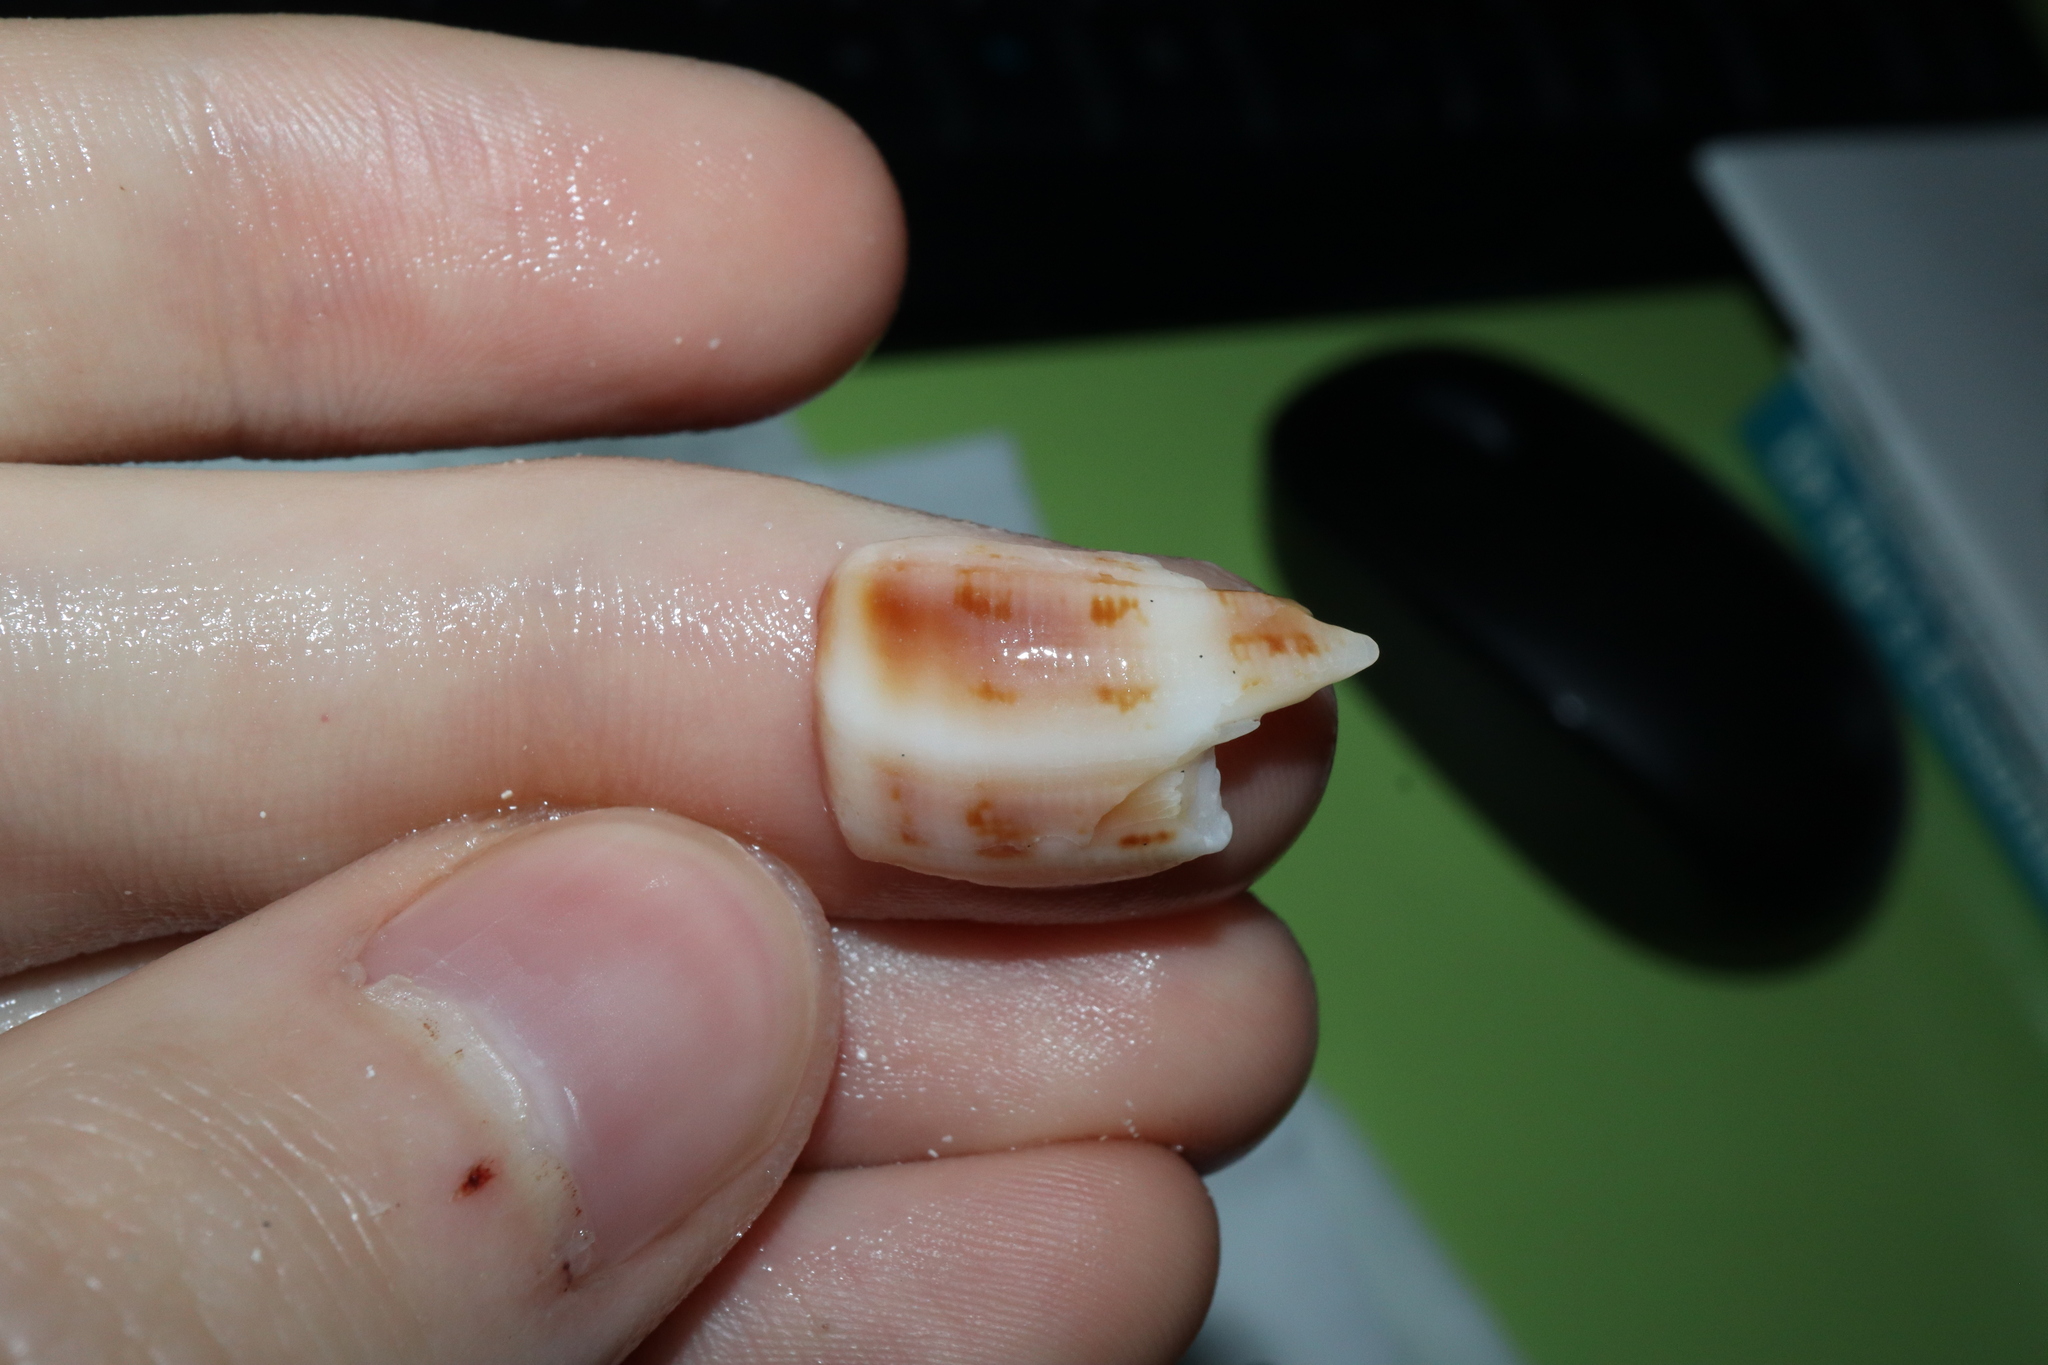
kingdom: Animalia
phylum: Mollusca
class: Gastropoda
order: Neogastropoda
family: Conidae
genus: Conus
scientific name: Conus anemone
